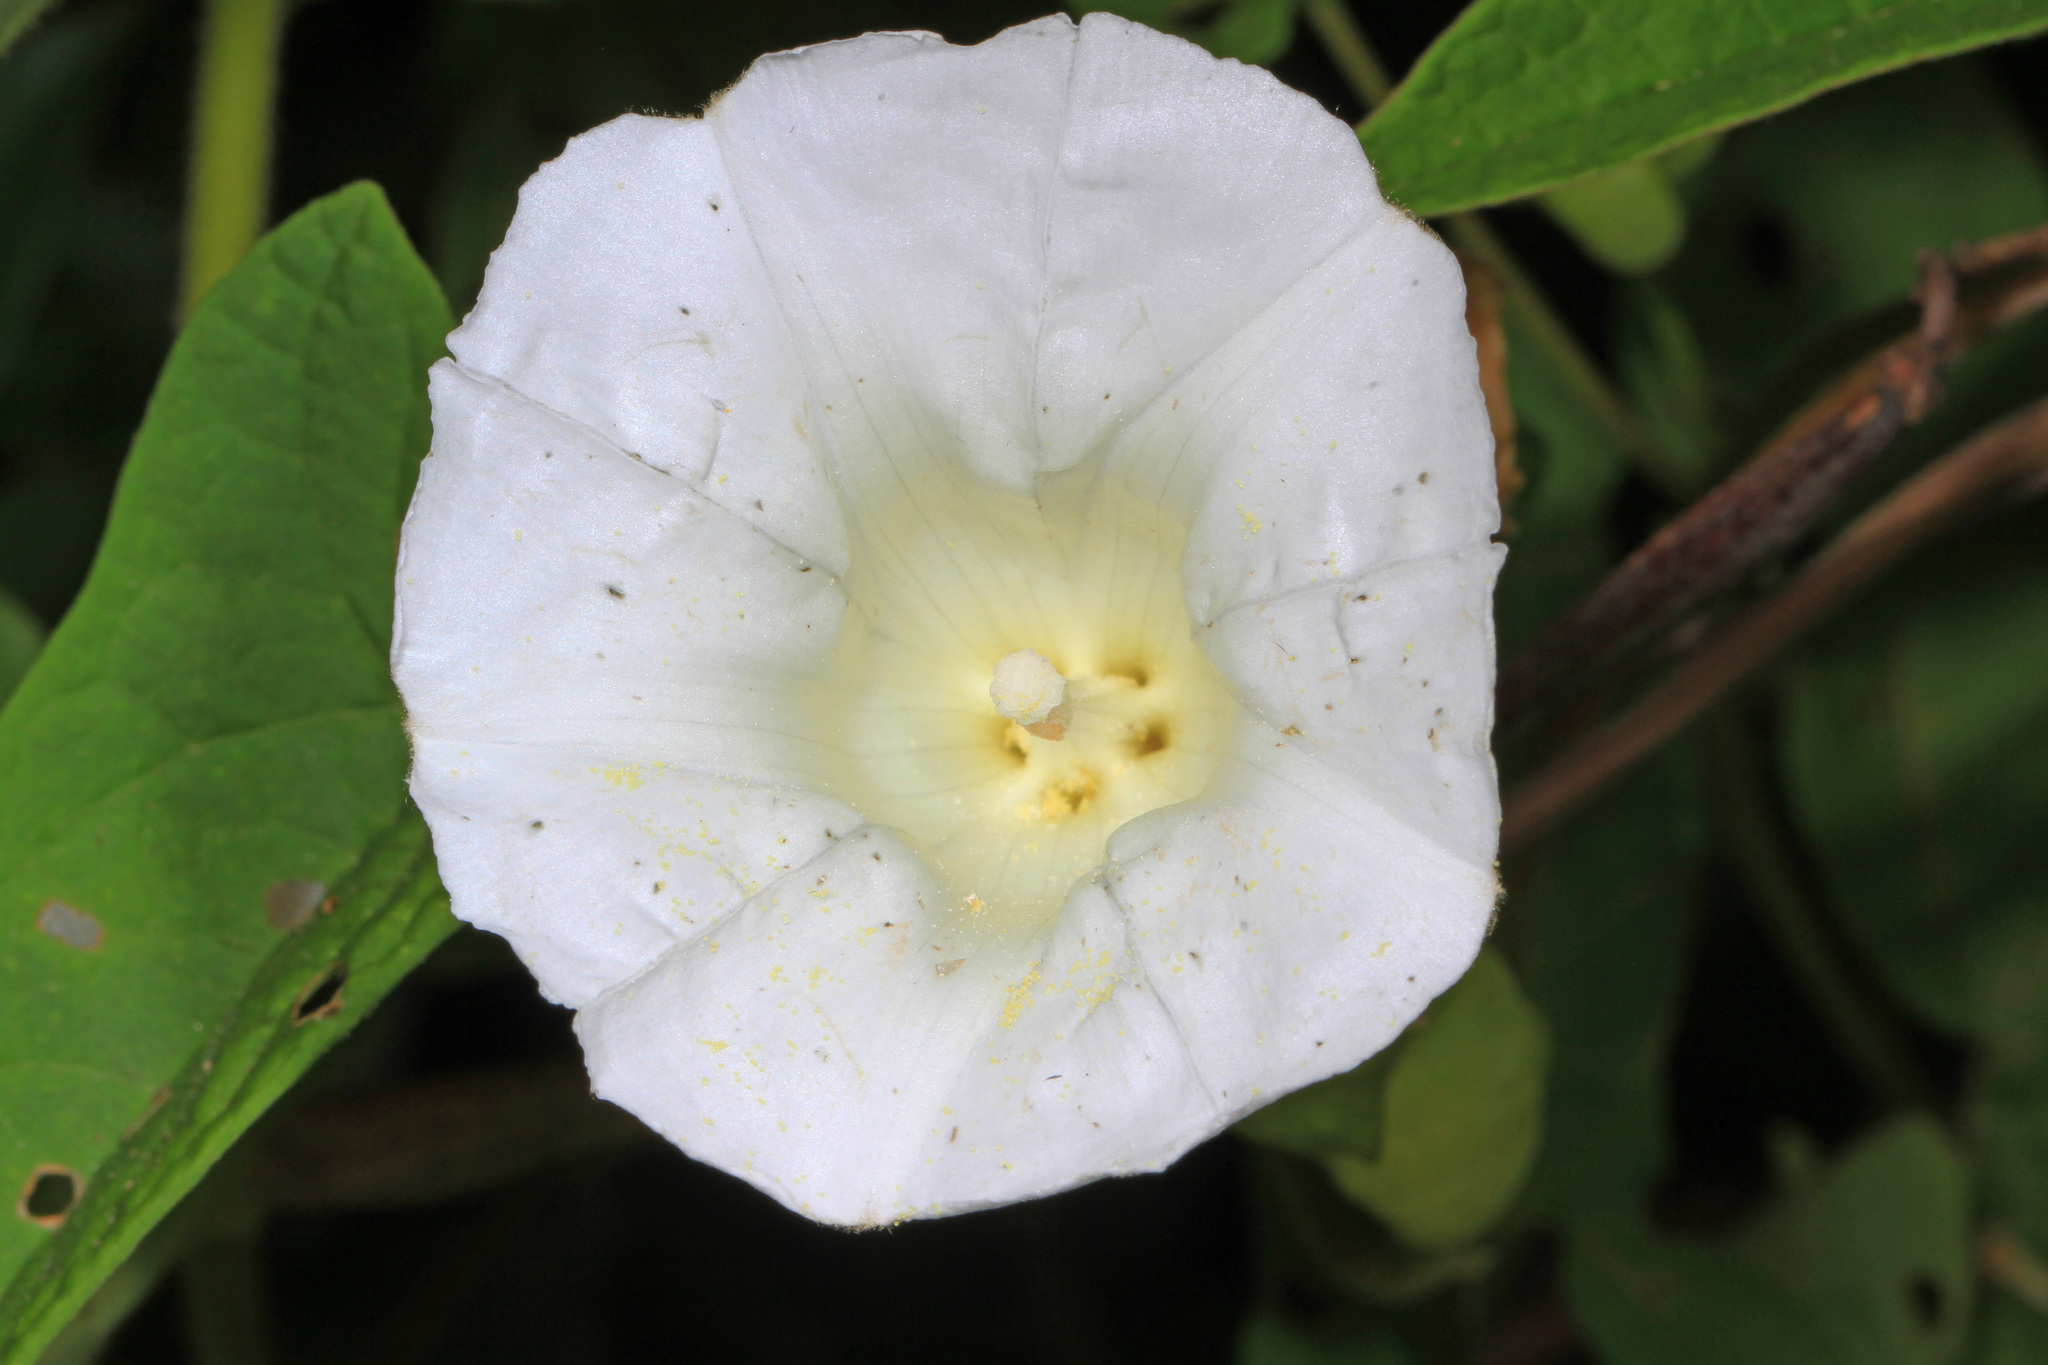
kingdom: Plantae
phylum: Tracheophyta
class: Magnoliopsida
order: Solanales
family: Convolvulaceae
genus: Calystegia
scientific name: Calystegia sepium
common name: Hedge bindweed
